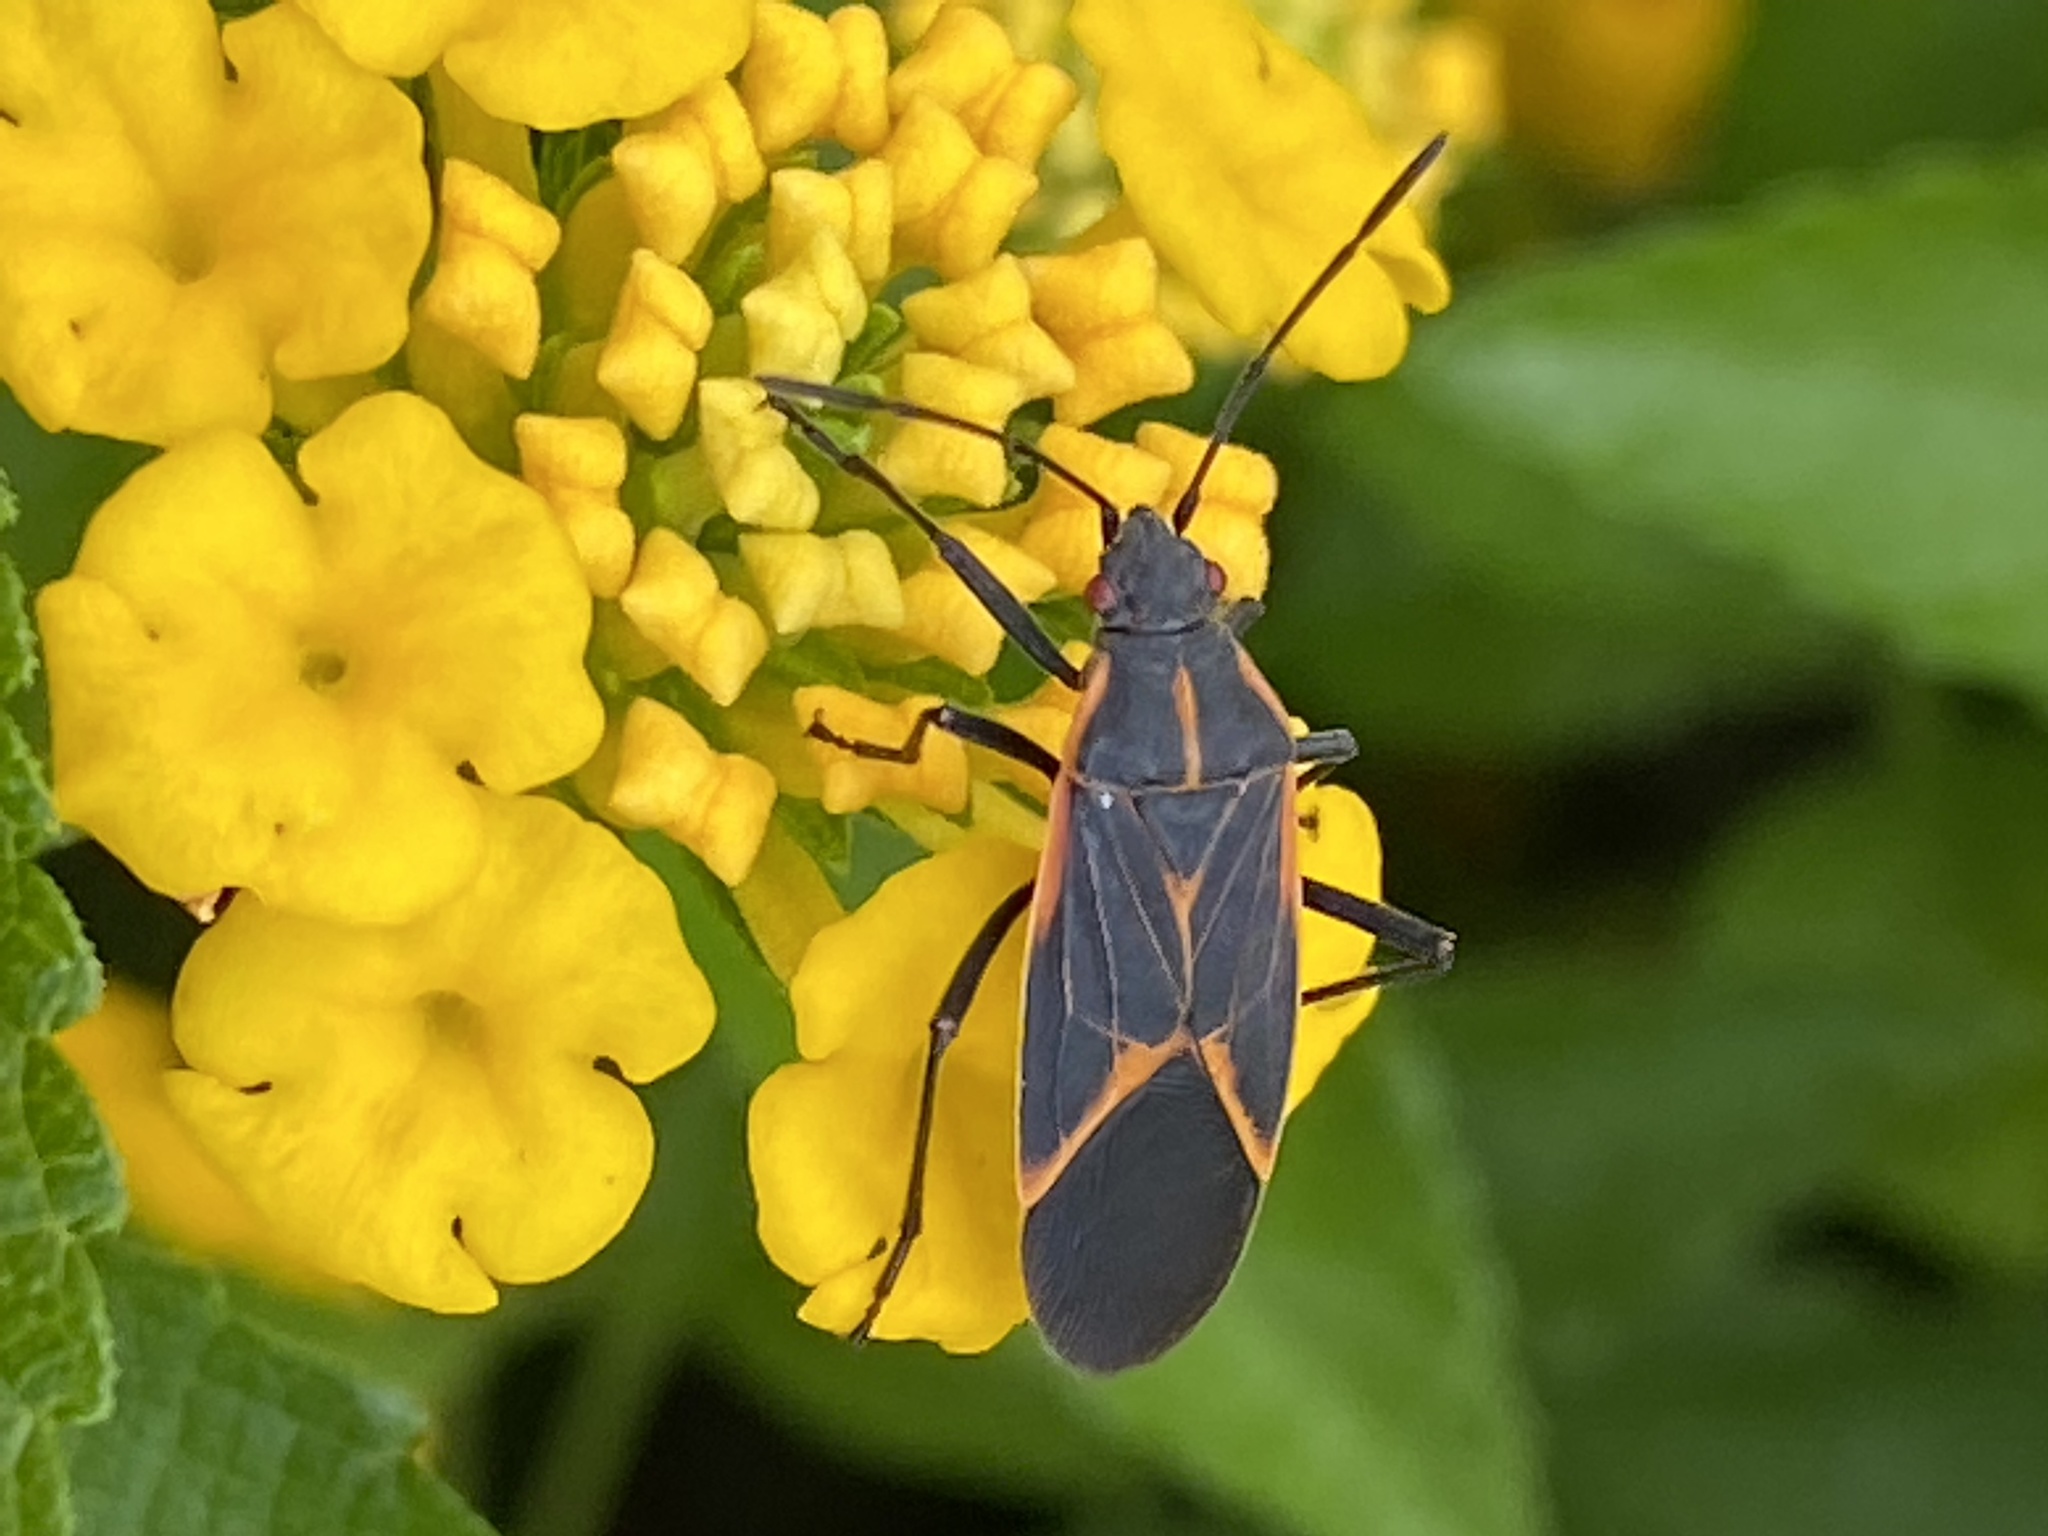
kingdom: Animalia
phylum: Arthropoda
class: Insecta
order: Hemiptera
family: Rhopalidae
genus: Boisea
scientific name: Boisea trivittata
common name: Boxelder bug
